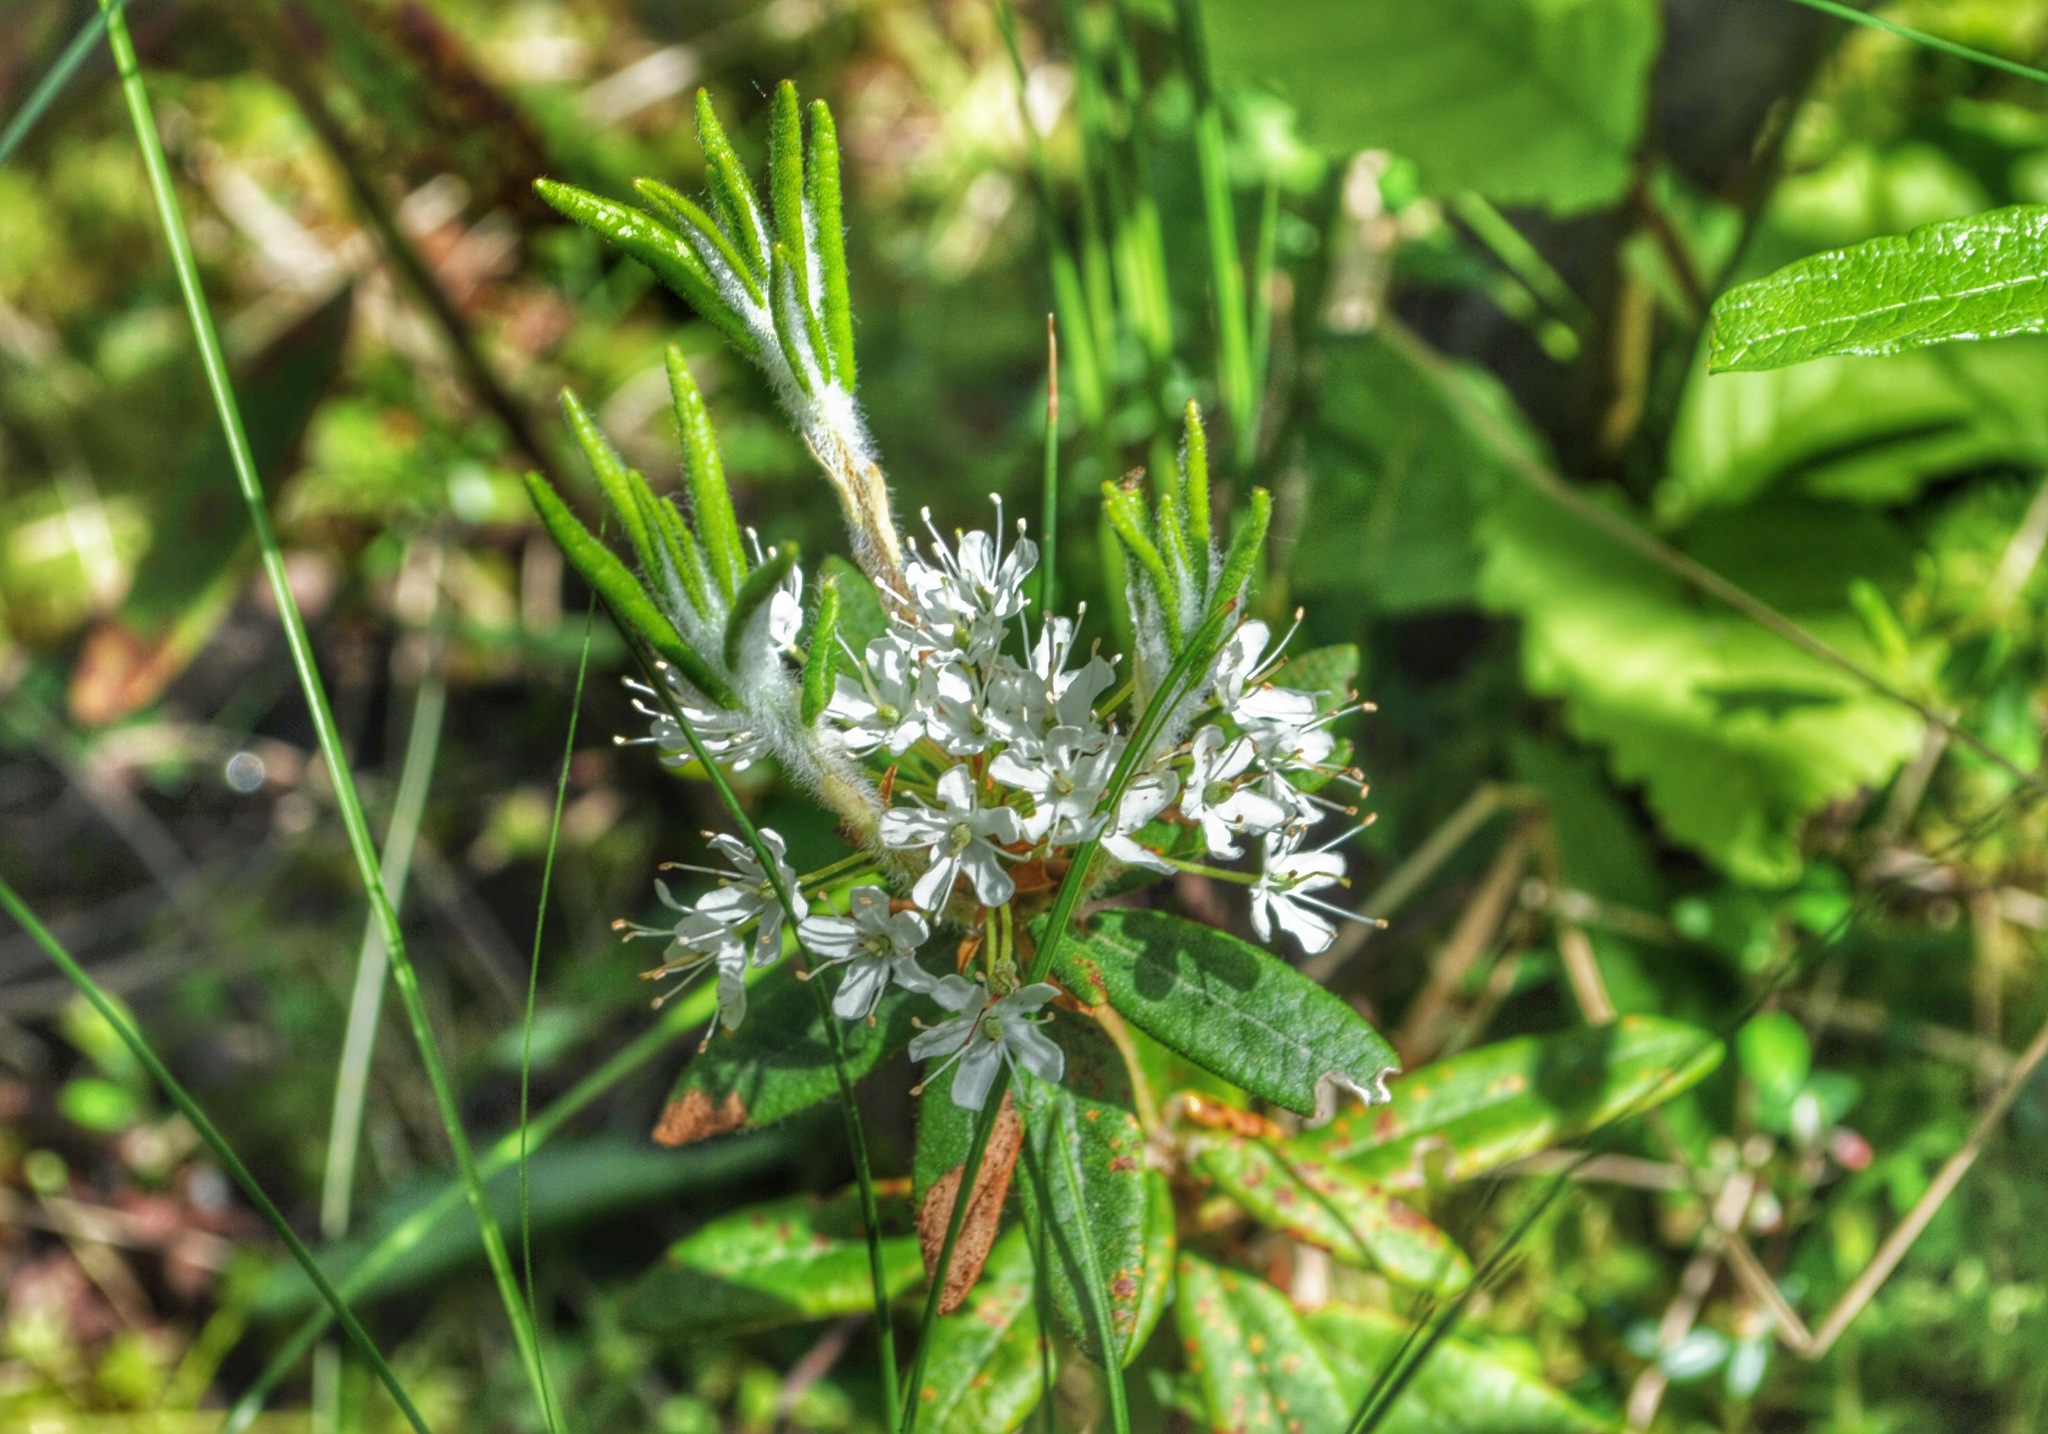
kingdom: Plantae
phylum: Tracheophyta
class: Magnoliopsida
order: Ericales
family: Ericaceae
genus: Rhododendron
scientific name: Rhododendron groenlandicum
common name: Bog labrador tea
